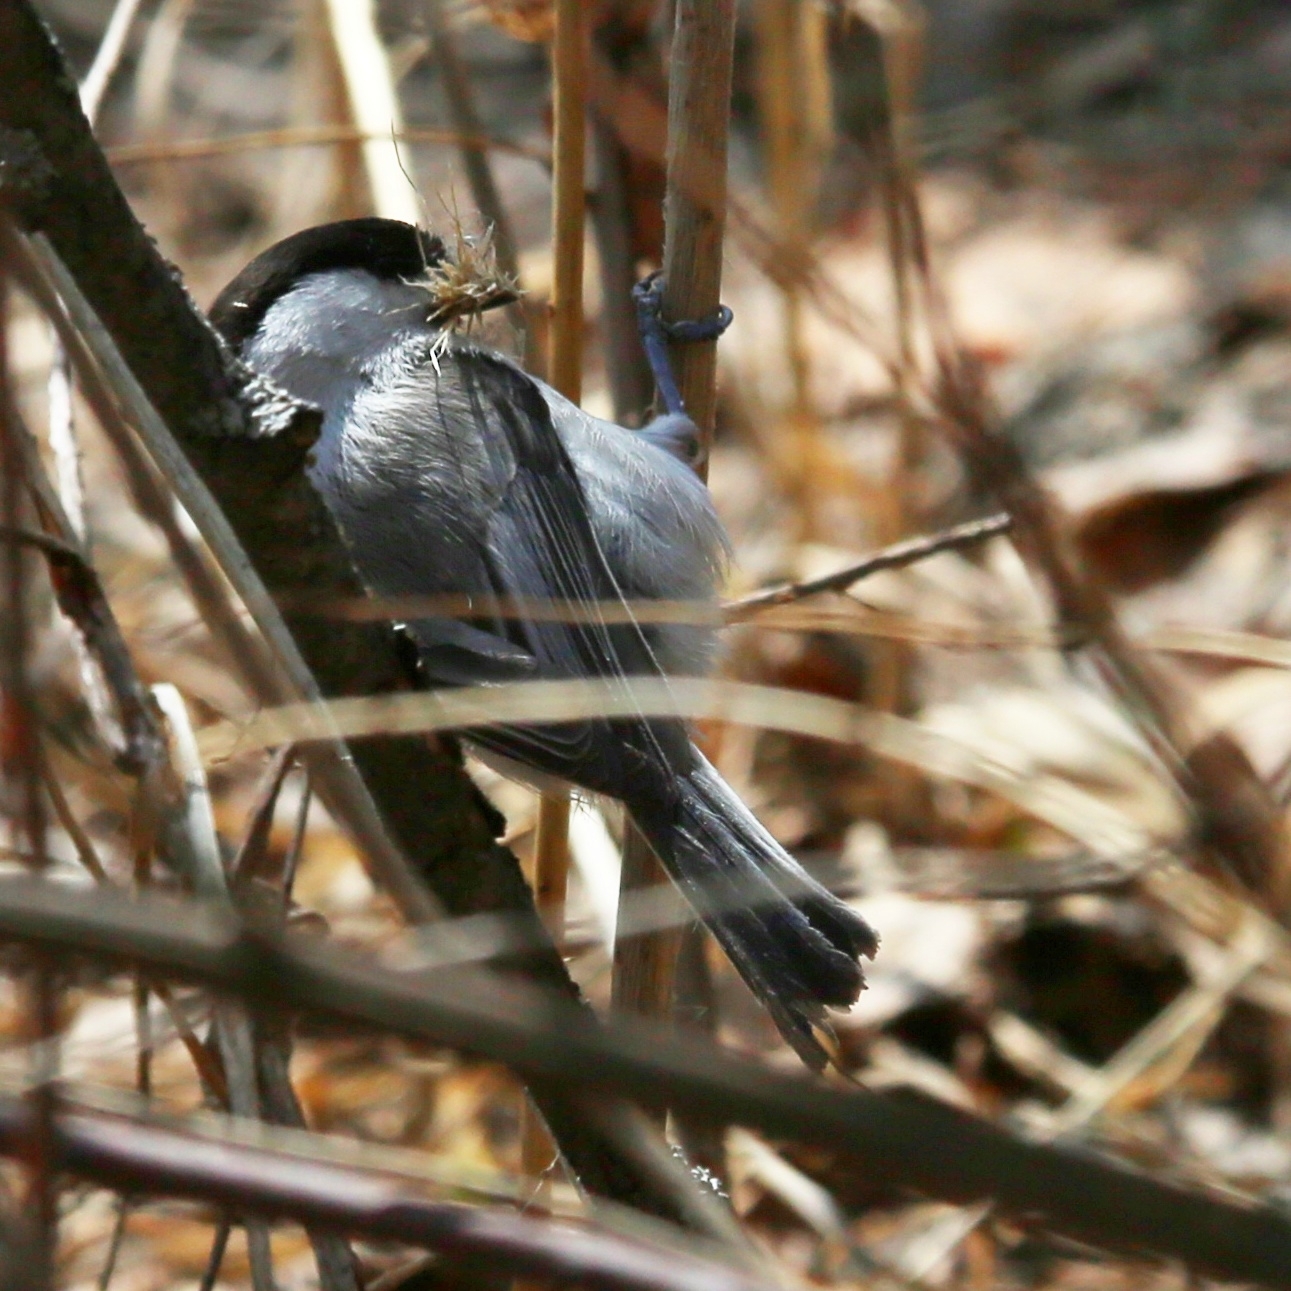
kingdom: Animalia
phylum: Chordata
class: Aves
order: Passeriformes
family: Paridae
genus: Poecile
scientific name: Poecile montanus
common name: Willow tit
